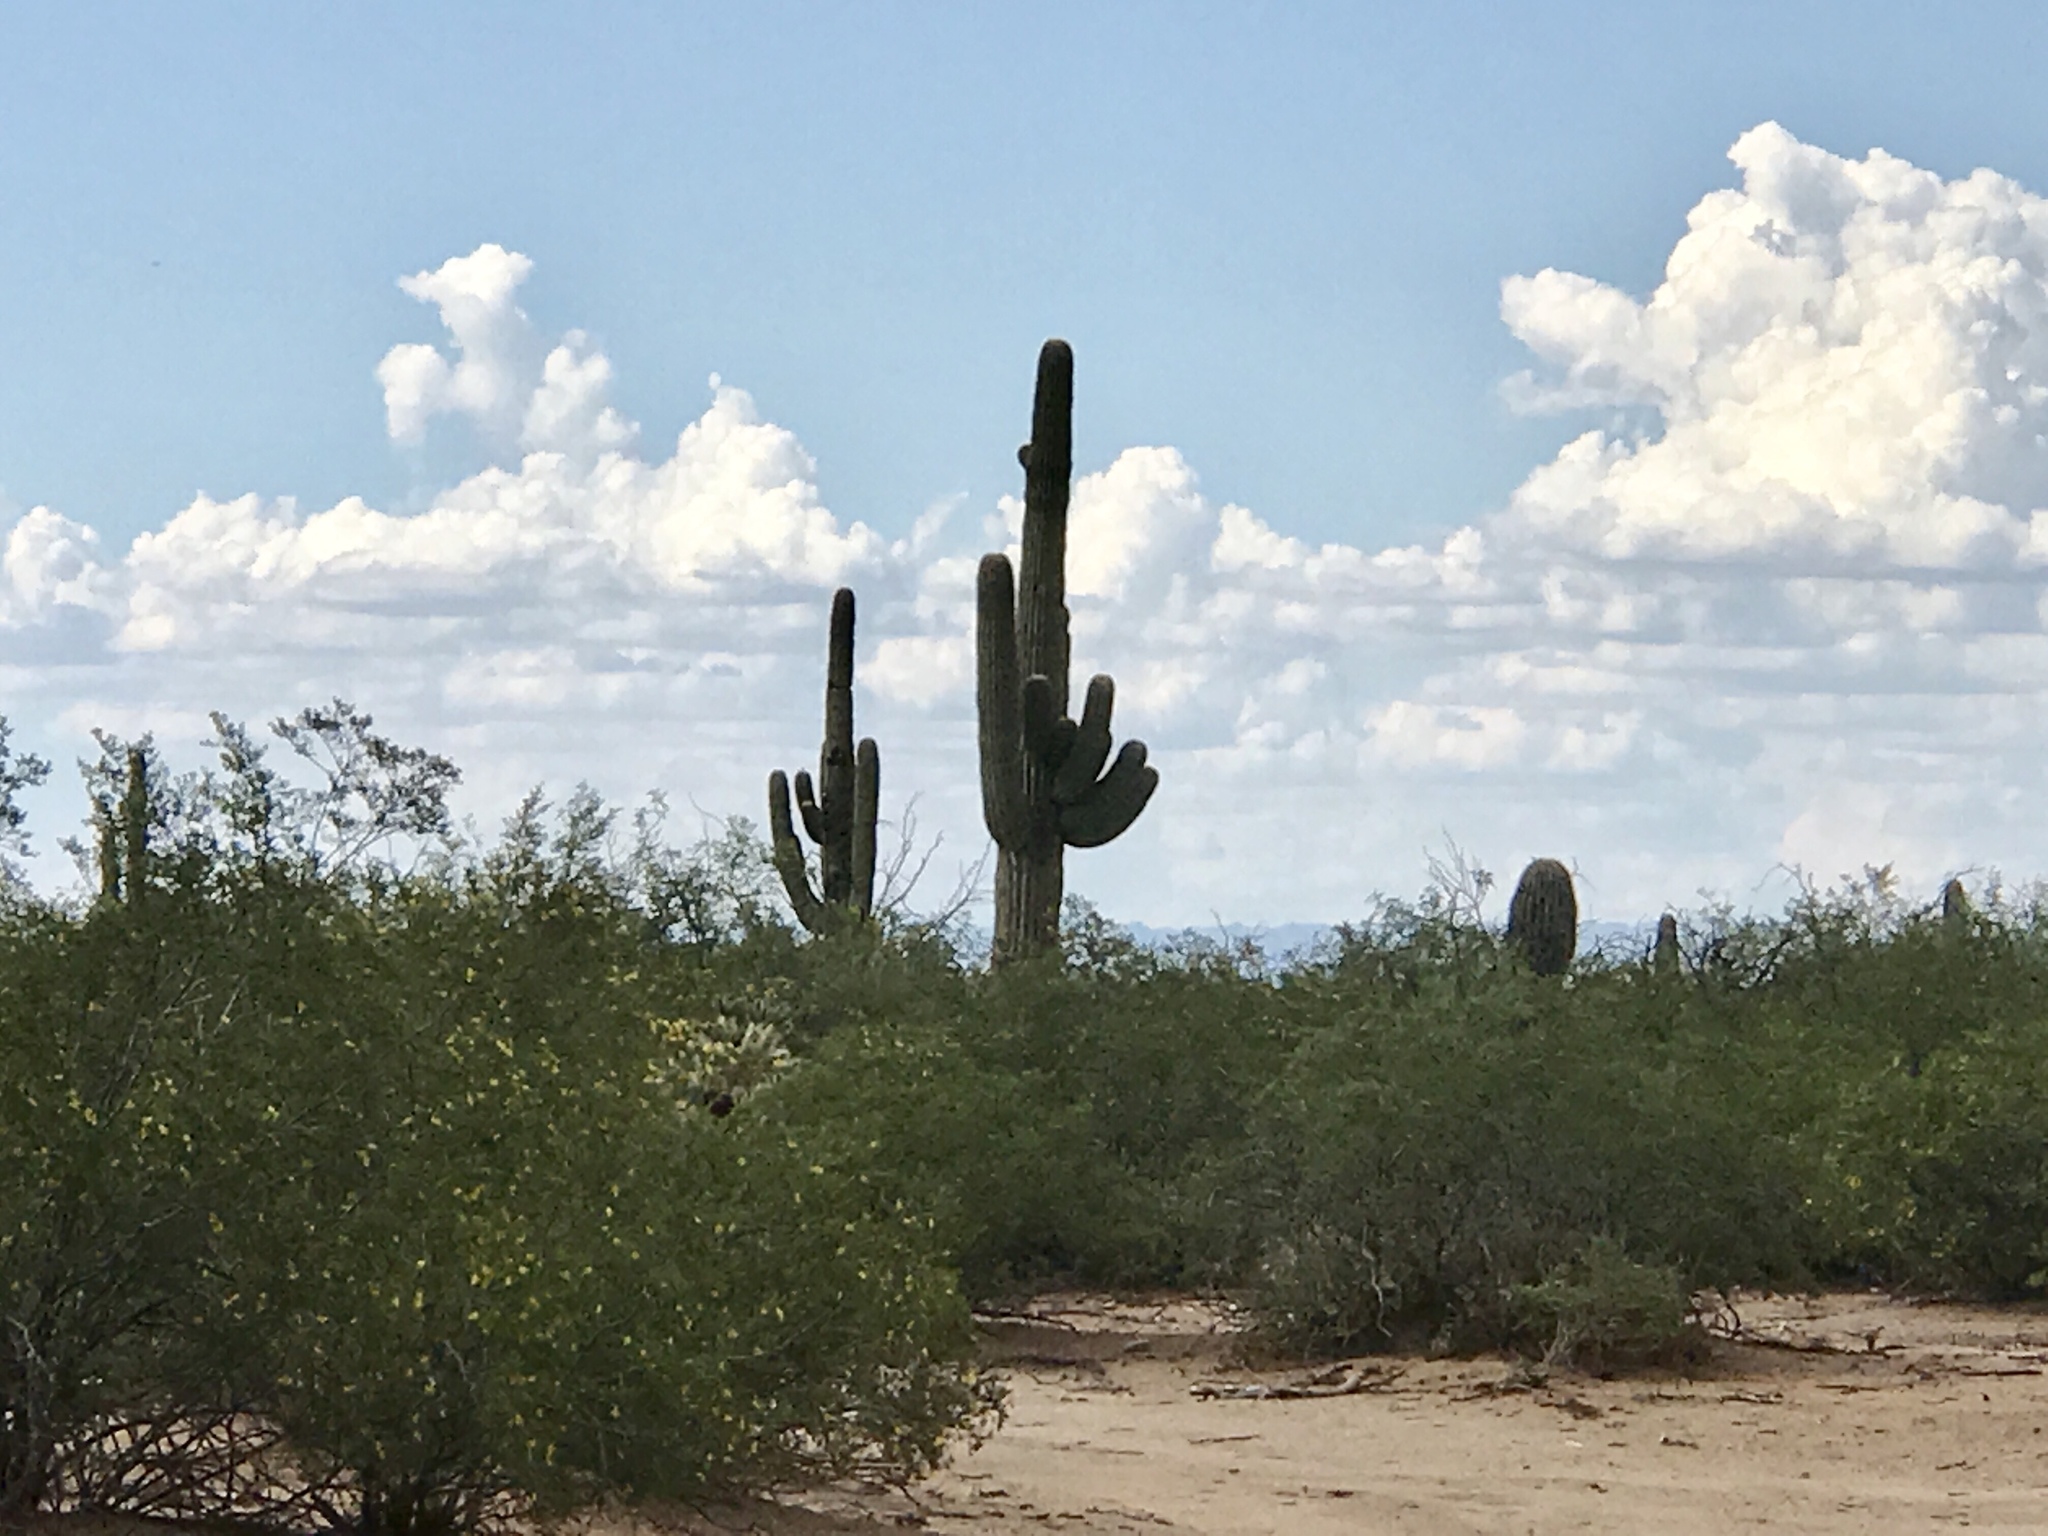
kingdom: Plantae
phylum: Tracheophyta
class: Magnoliopsida
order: Caryophyllales
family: Cactaceae
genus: Carnegiea
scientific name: Carnegiea gigantea
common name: Saguaro
